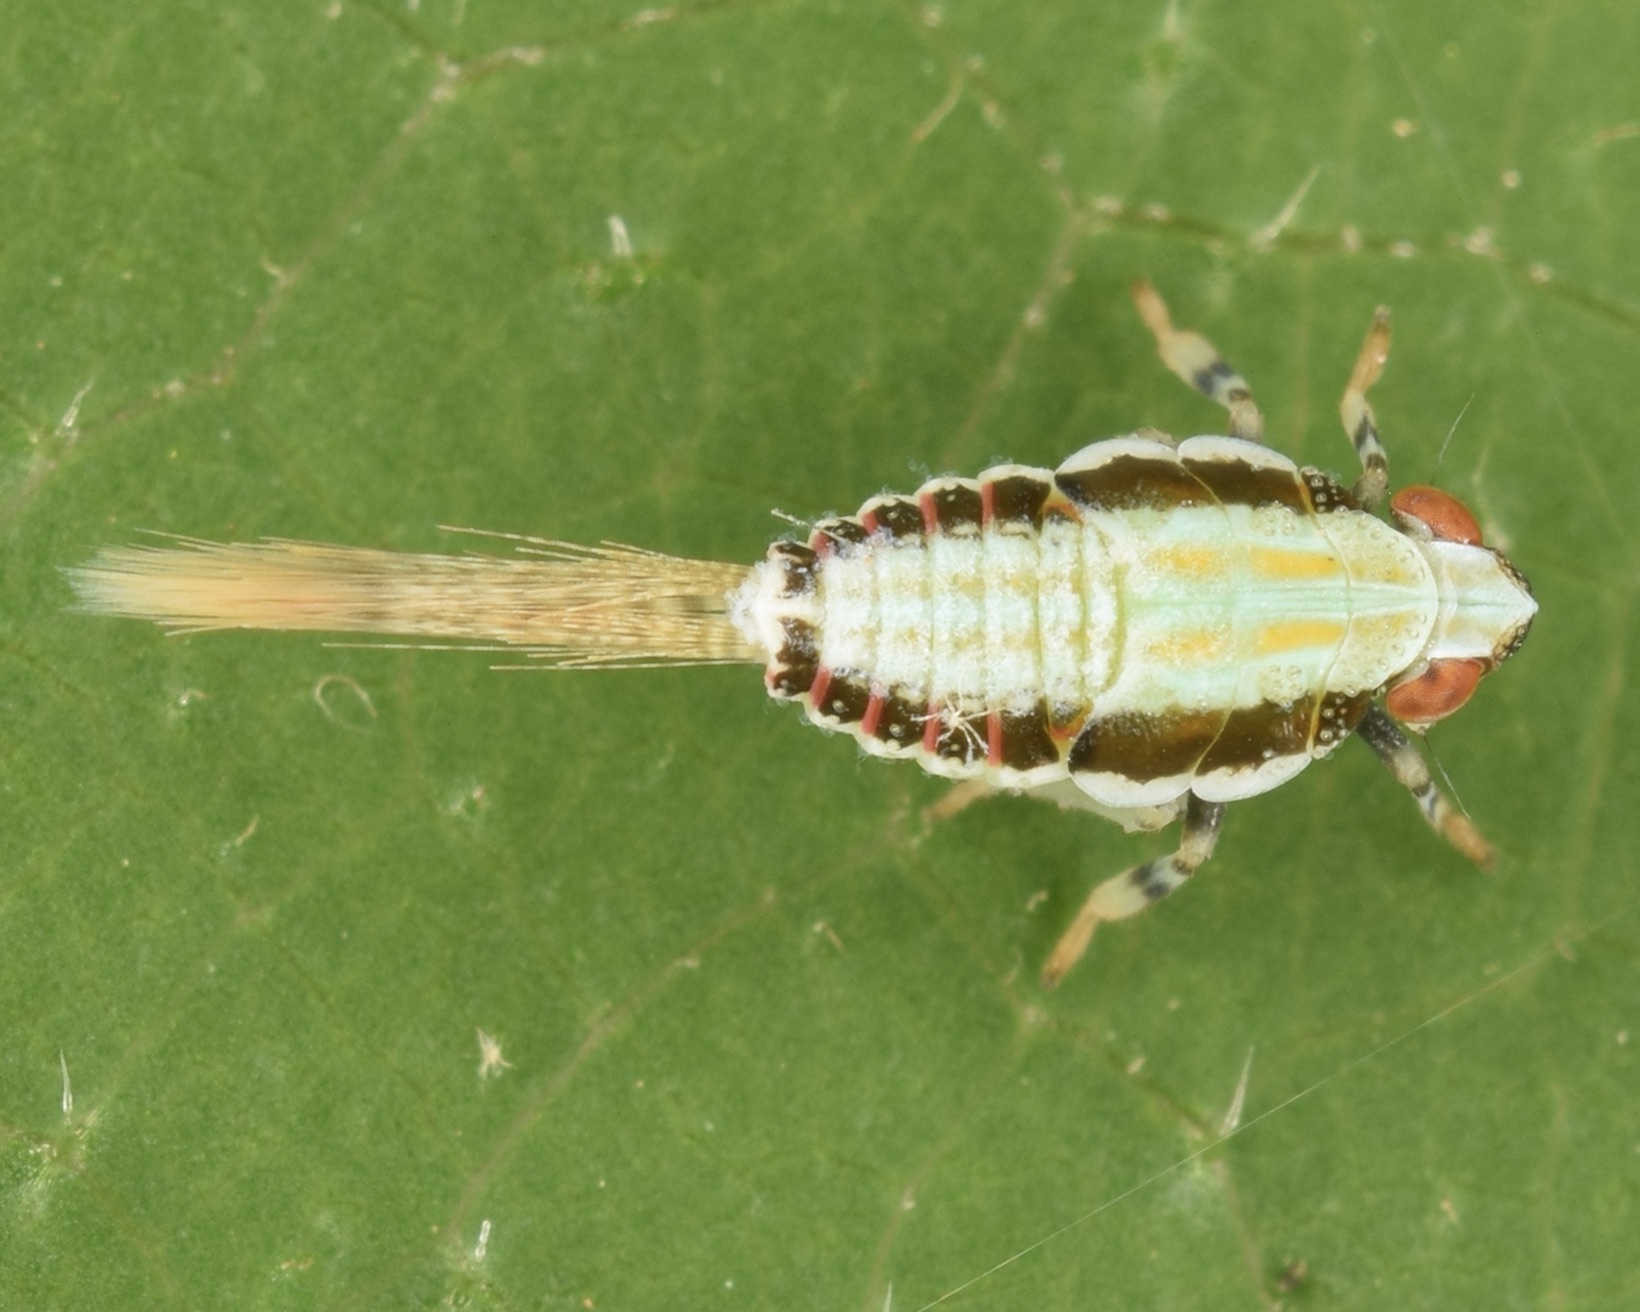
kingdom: Animalia
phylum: Arthropoda
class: Insecta
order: Hemiptera
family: Issidae
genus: Thionia
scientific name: Thionia bullata
